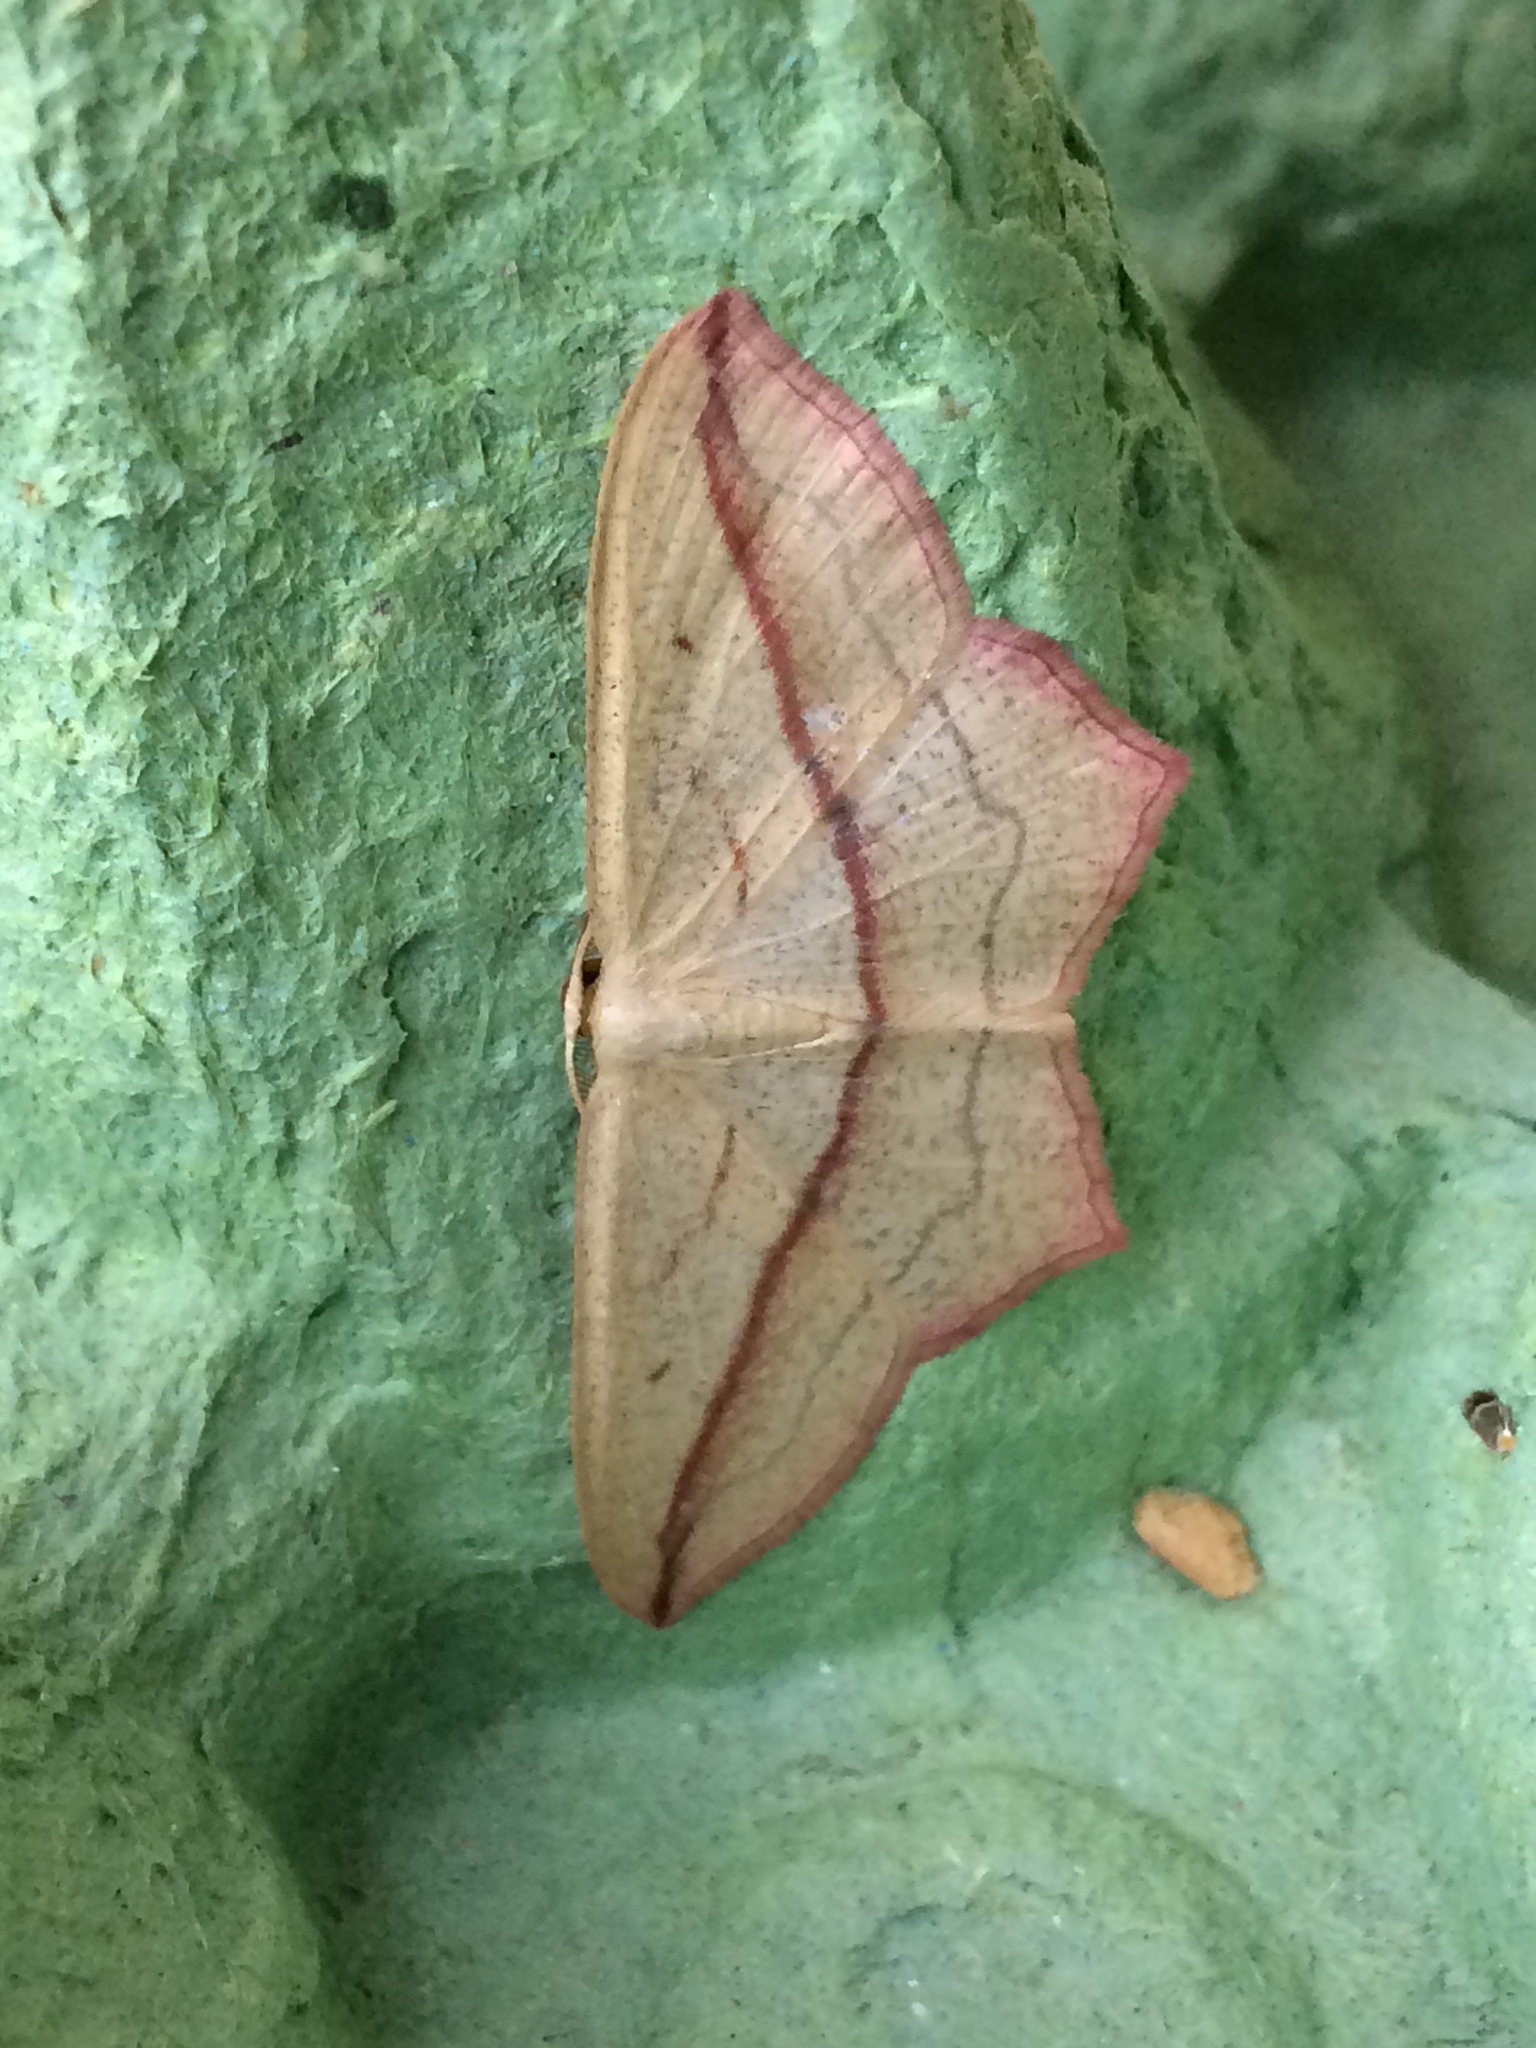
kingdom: Animalia
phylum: Arthropoda
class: Insecta
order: Lepidoptera
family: Geometridae
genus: Timandra
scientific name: Timandra comae
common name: Blood-vein
